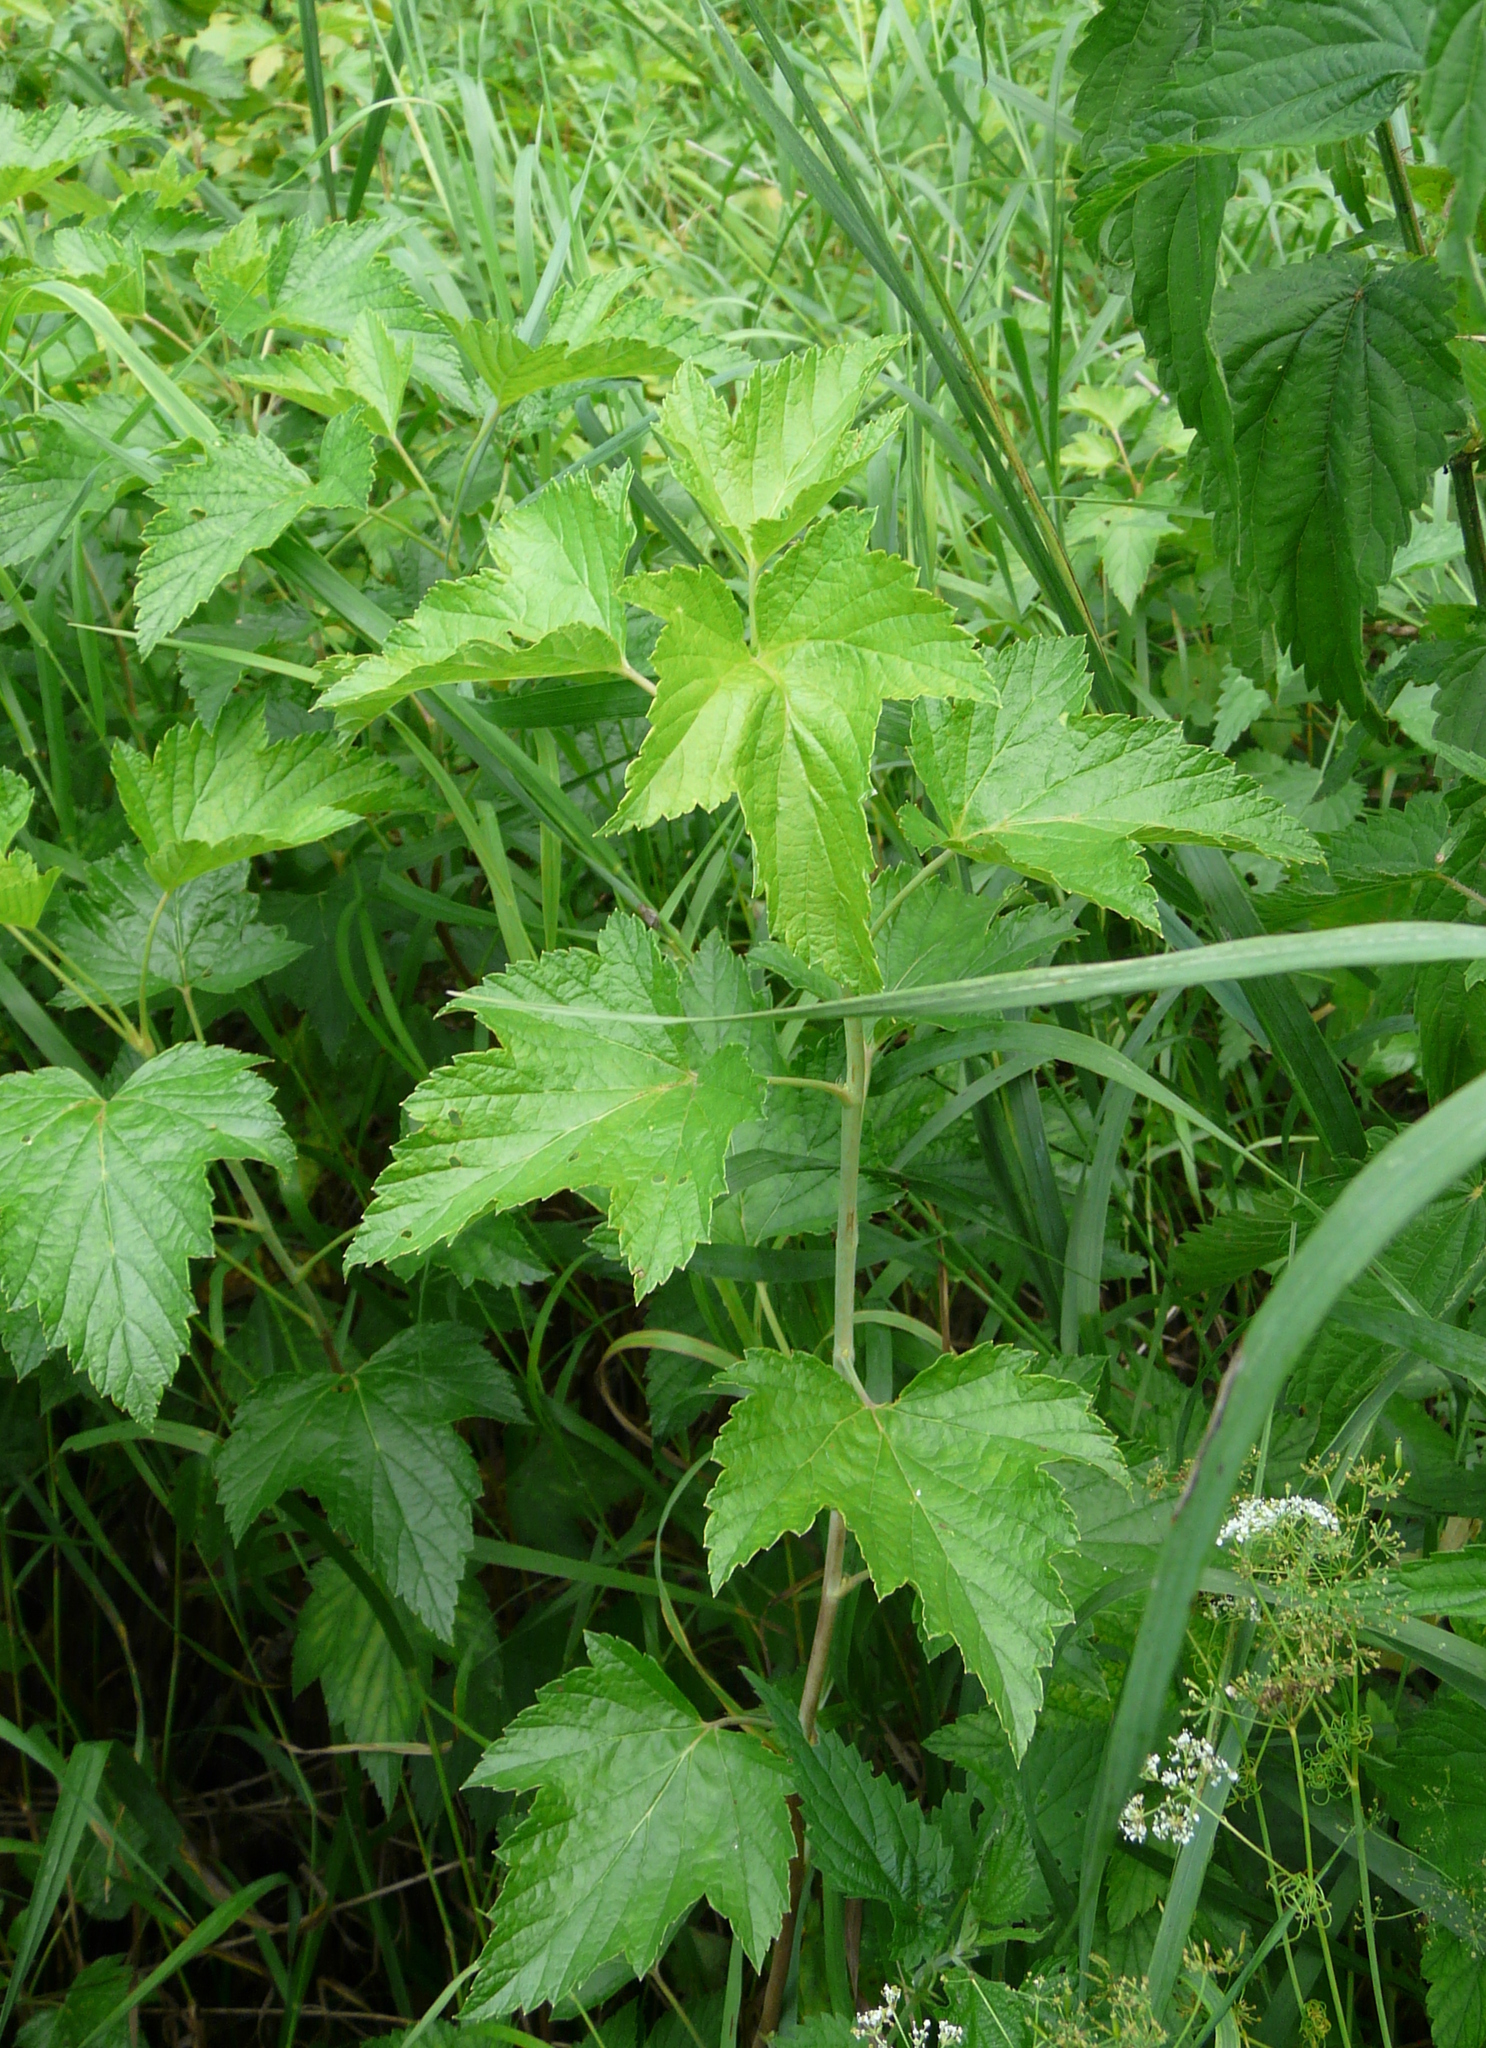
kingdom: Plantae
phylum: Tracheophyta
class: Magnoliopsida
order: Saxifragales
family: Grossulariaceae
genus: Ribes
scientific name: Ribes nigrum
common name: Black currant
